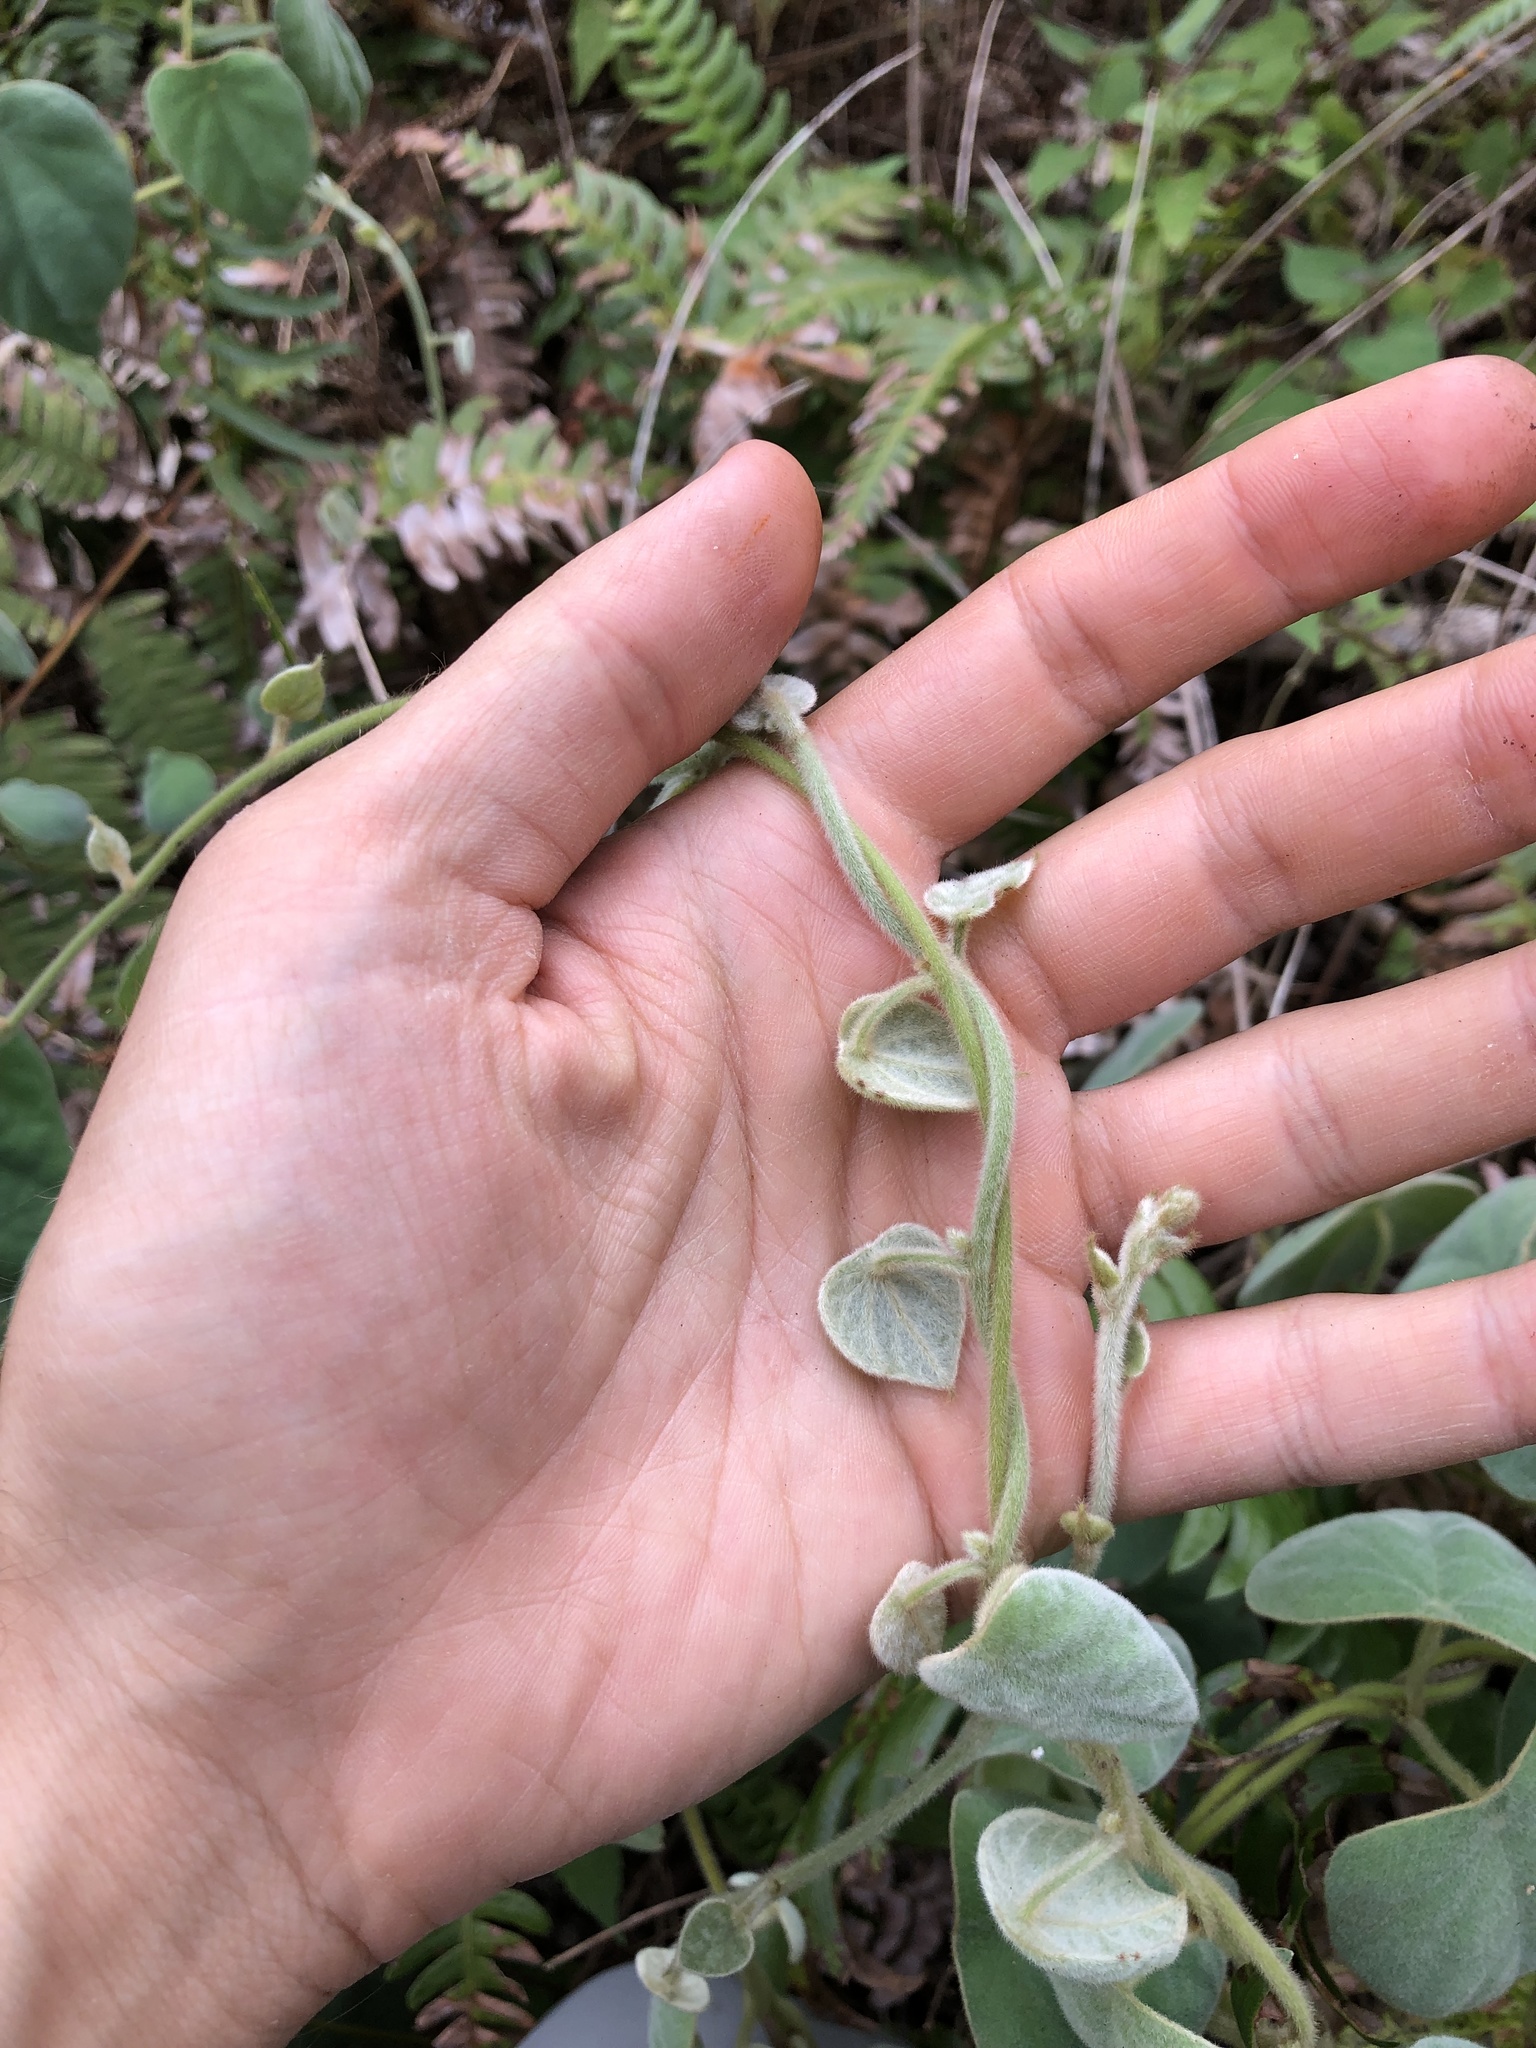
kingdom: Plantae
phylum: Tracheophyta
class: Magnoliopsida
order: Ranunculales
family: Menispermaceae
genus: Cissampelos
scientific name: Cissampelos pareira
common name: Velvetleaf
